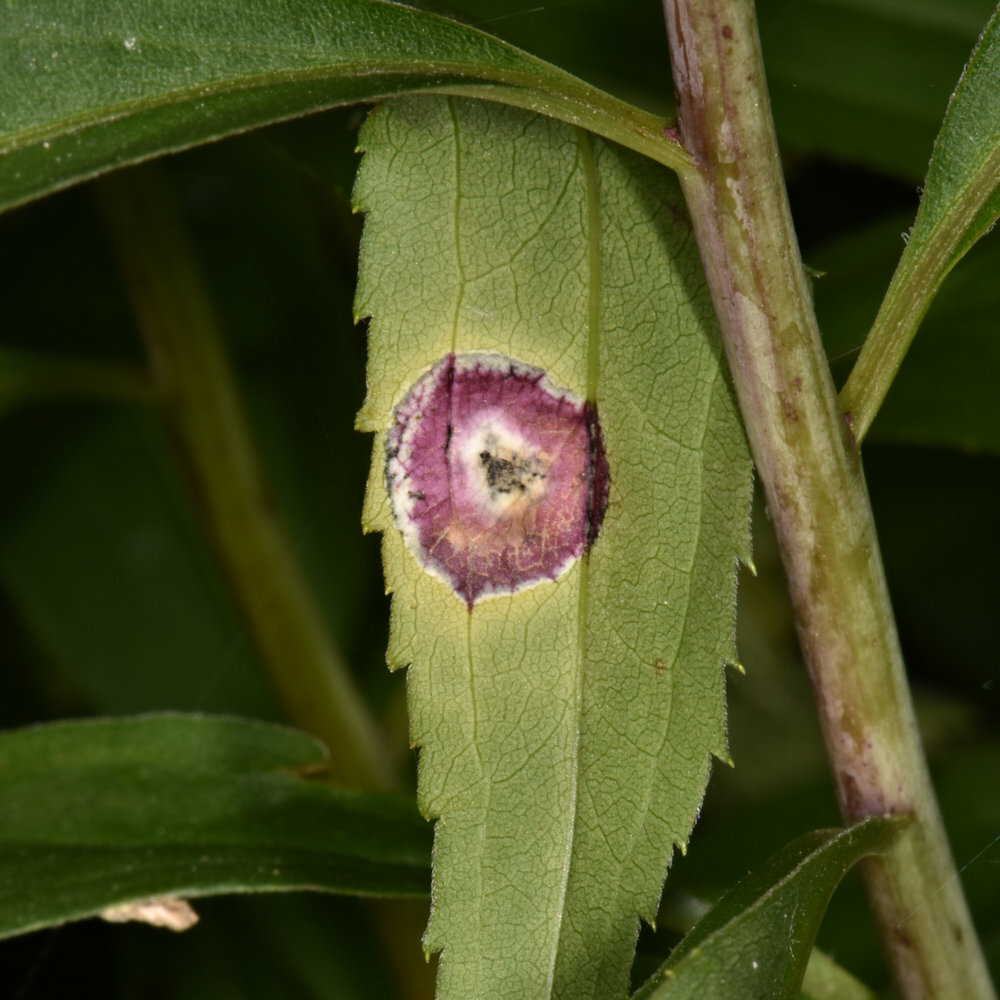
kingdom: Animalia
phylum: Arthropoda
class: Insecta
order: Diptera
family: Cecidomyiidae
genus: Asteromyia
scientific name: Asteromyia carbonifera
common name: Carbonifera goldenrod gall midge
